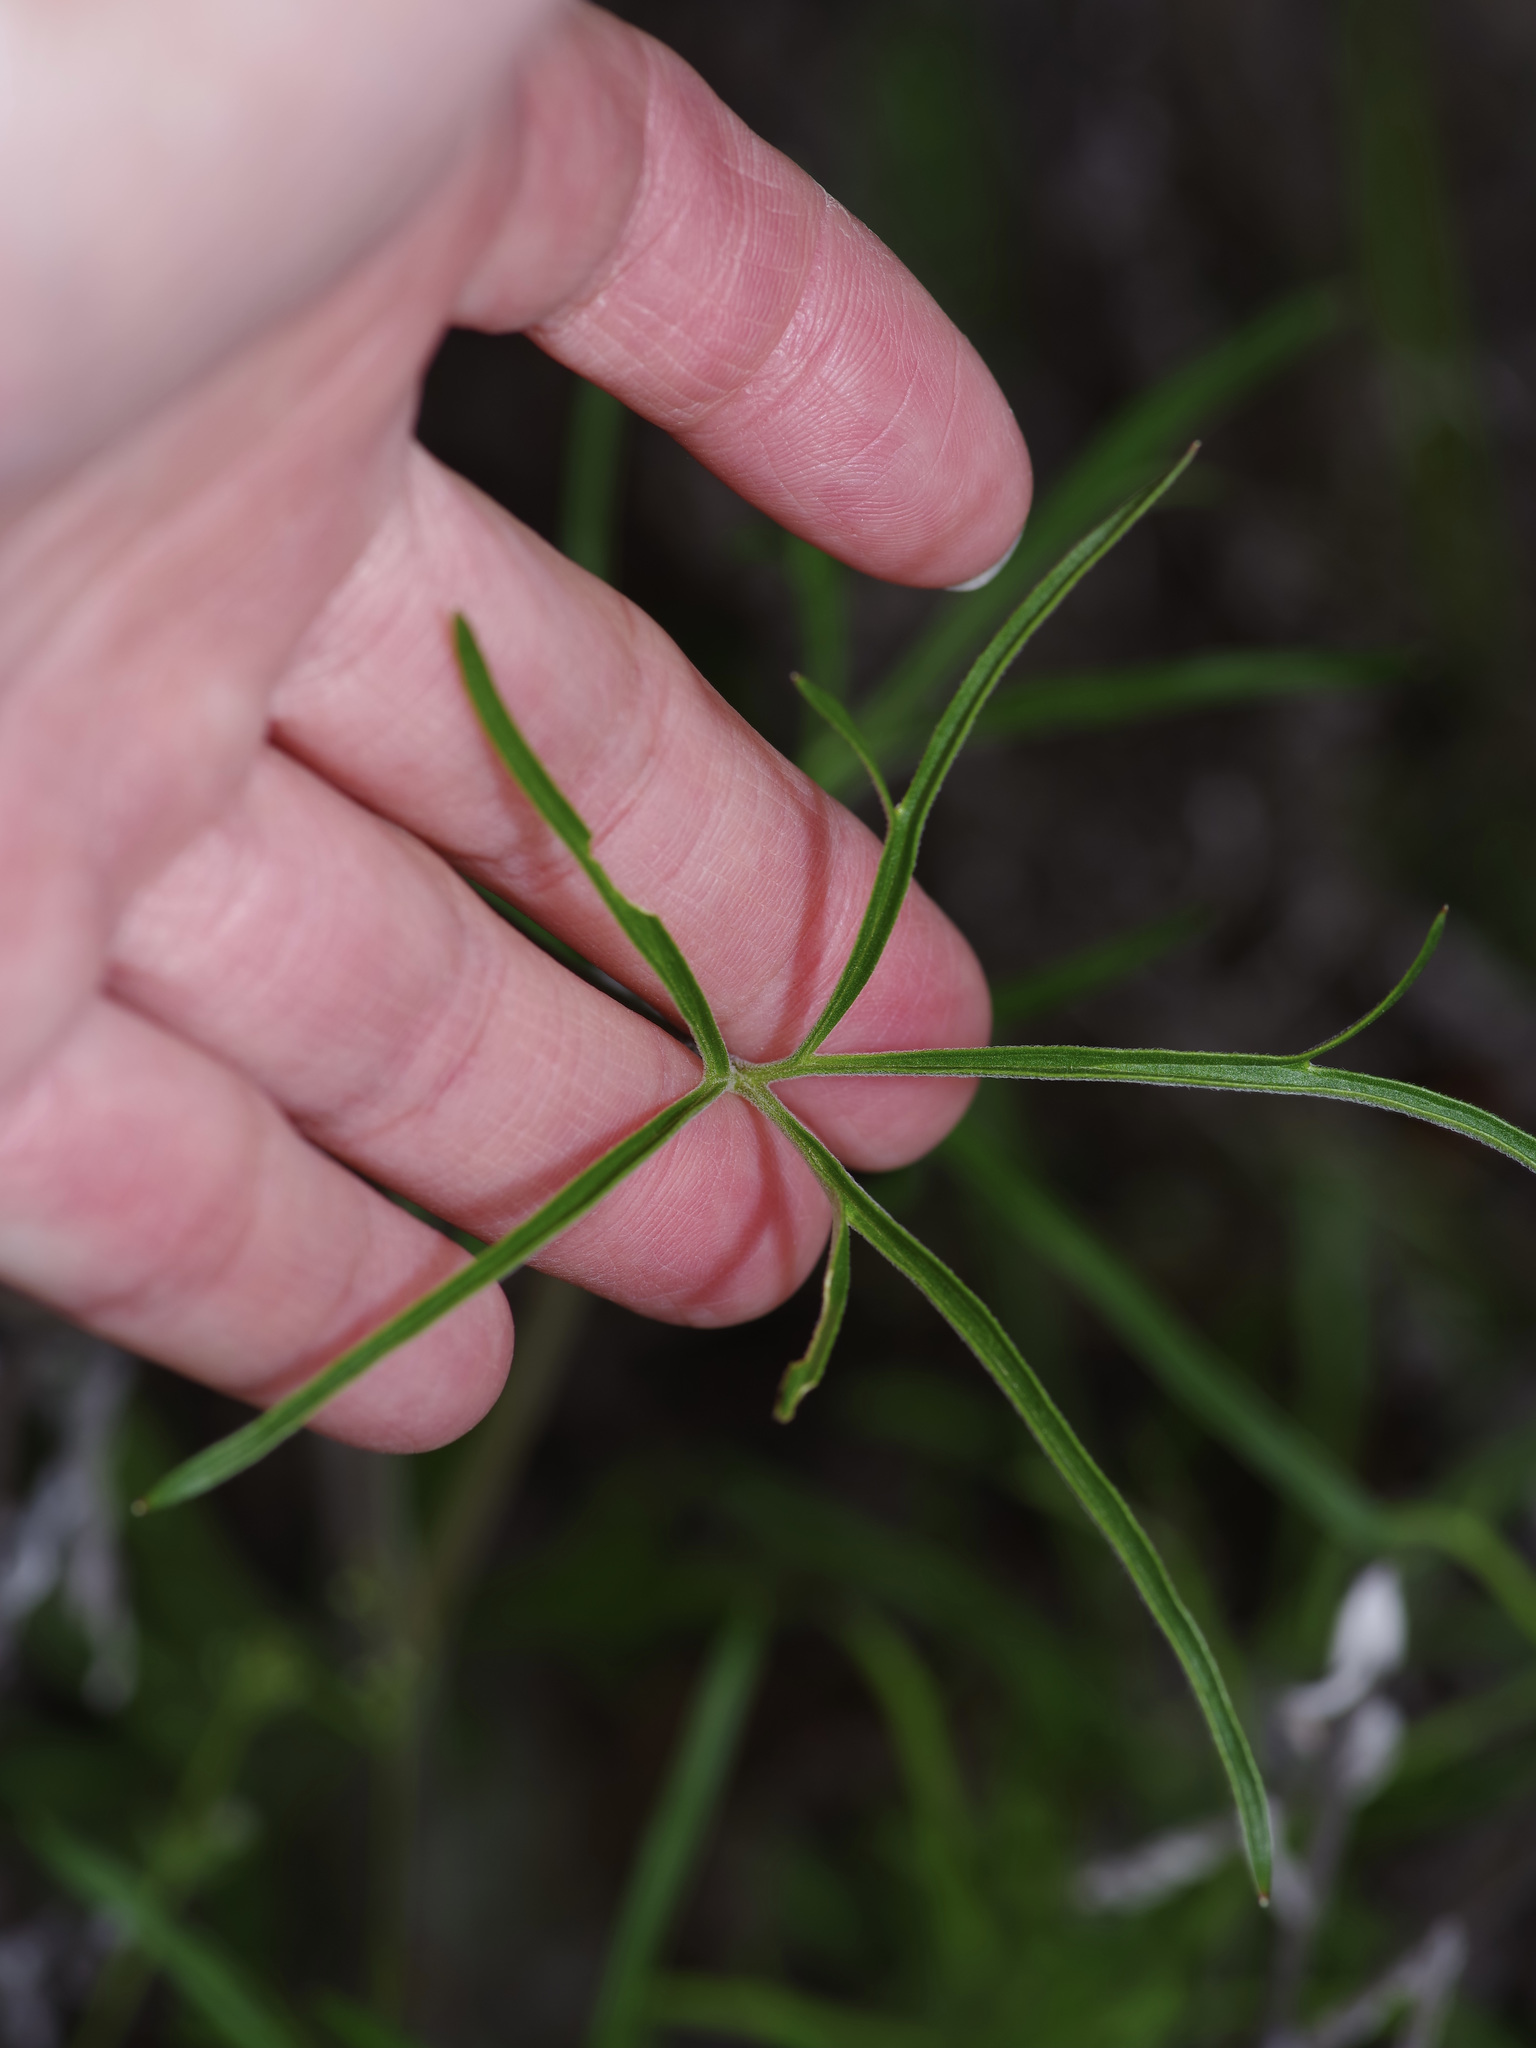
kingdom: Plantae
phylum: Tracheophyta
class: Magnoliopsida
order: Ranunculales
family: Ranunculaceae
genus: Delphinium
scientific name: Delphinium carolinianum
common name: Carolina larkspur
